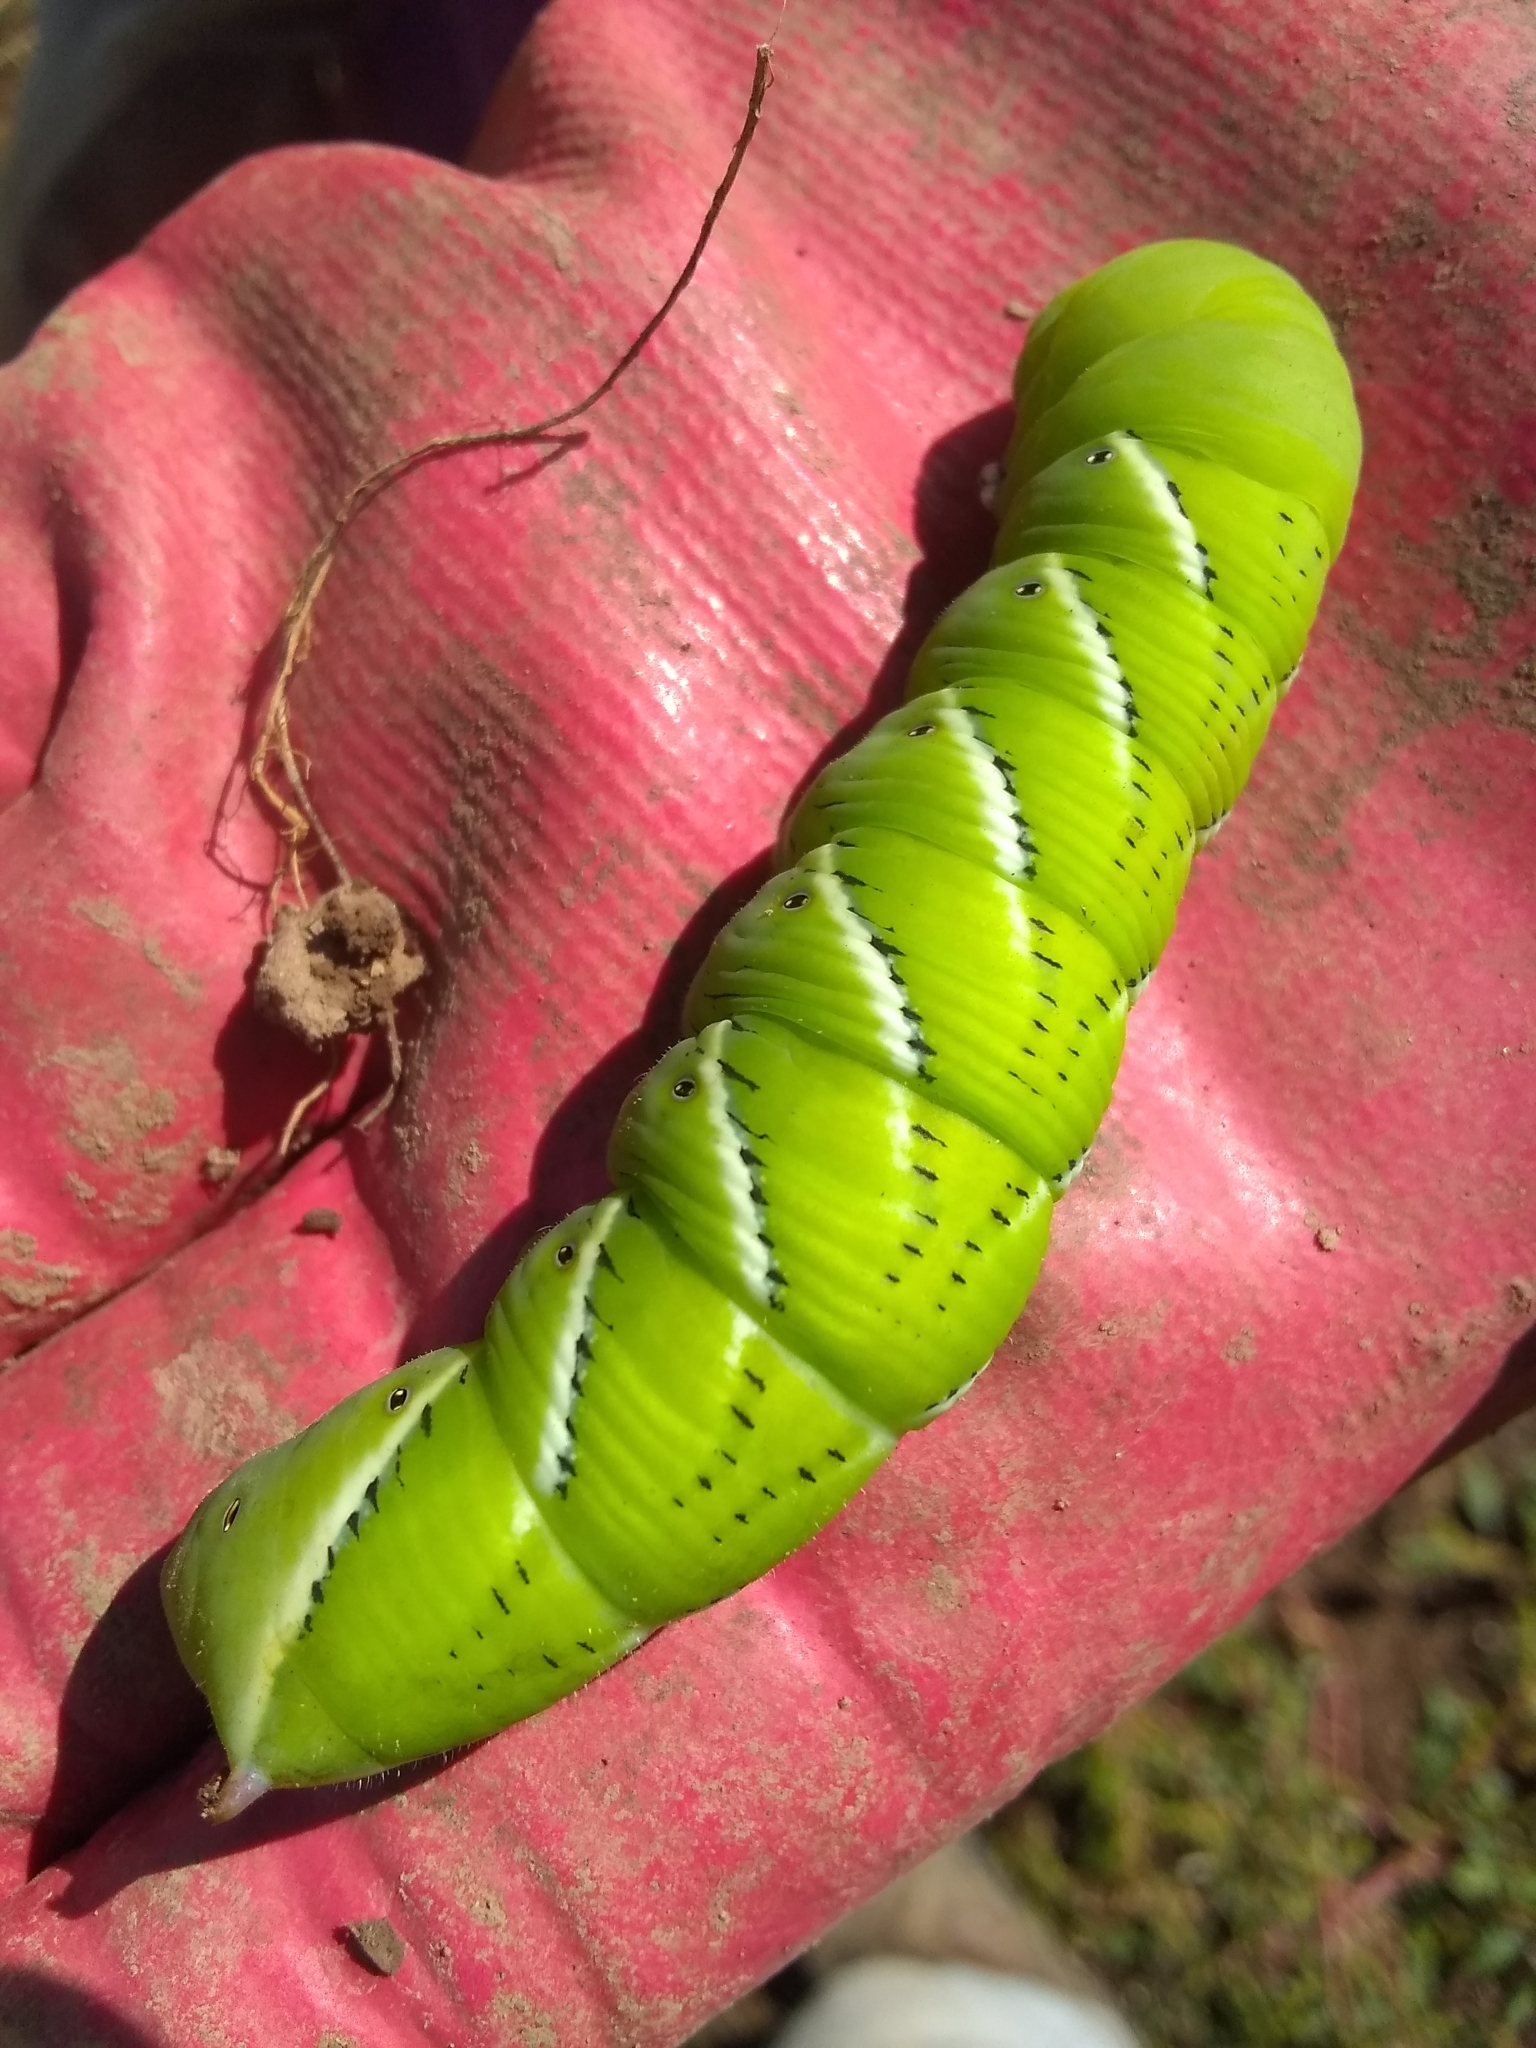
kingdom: Animalia
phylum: Arthropoda
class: Insecta
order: Lepidoptera
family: Sphingidae
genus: Manduca
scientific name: Manduca sexta
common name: Carolina sphinx
